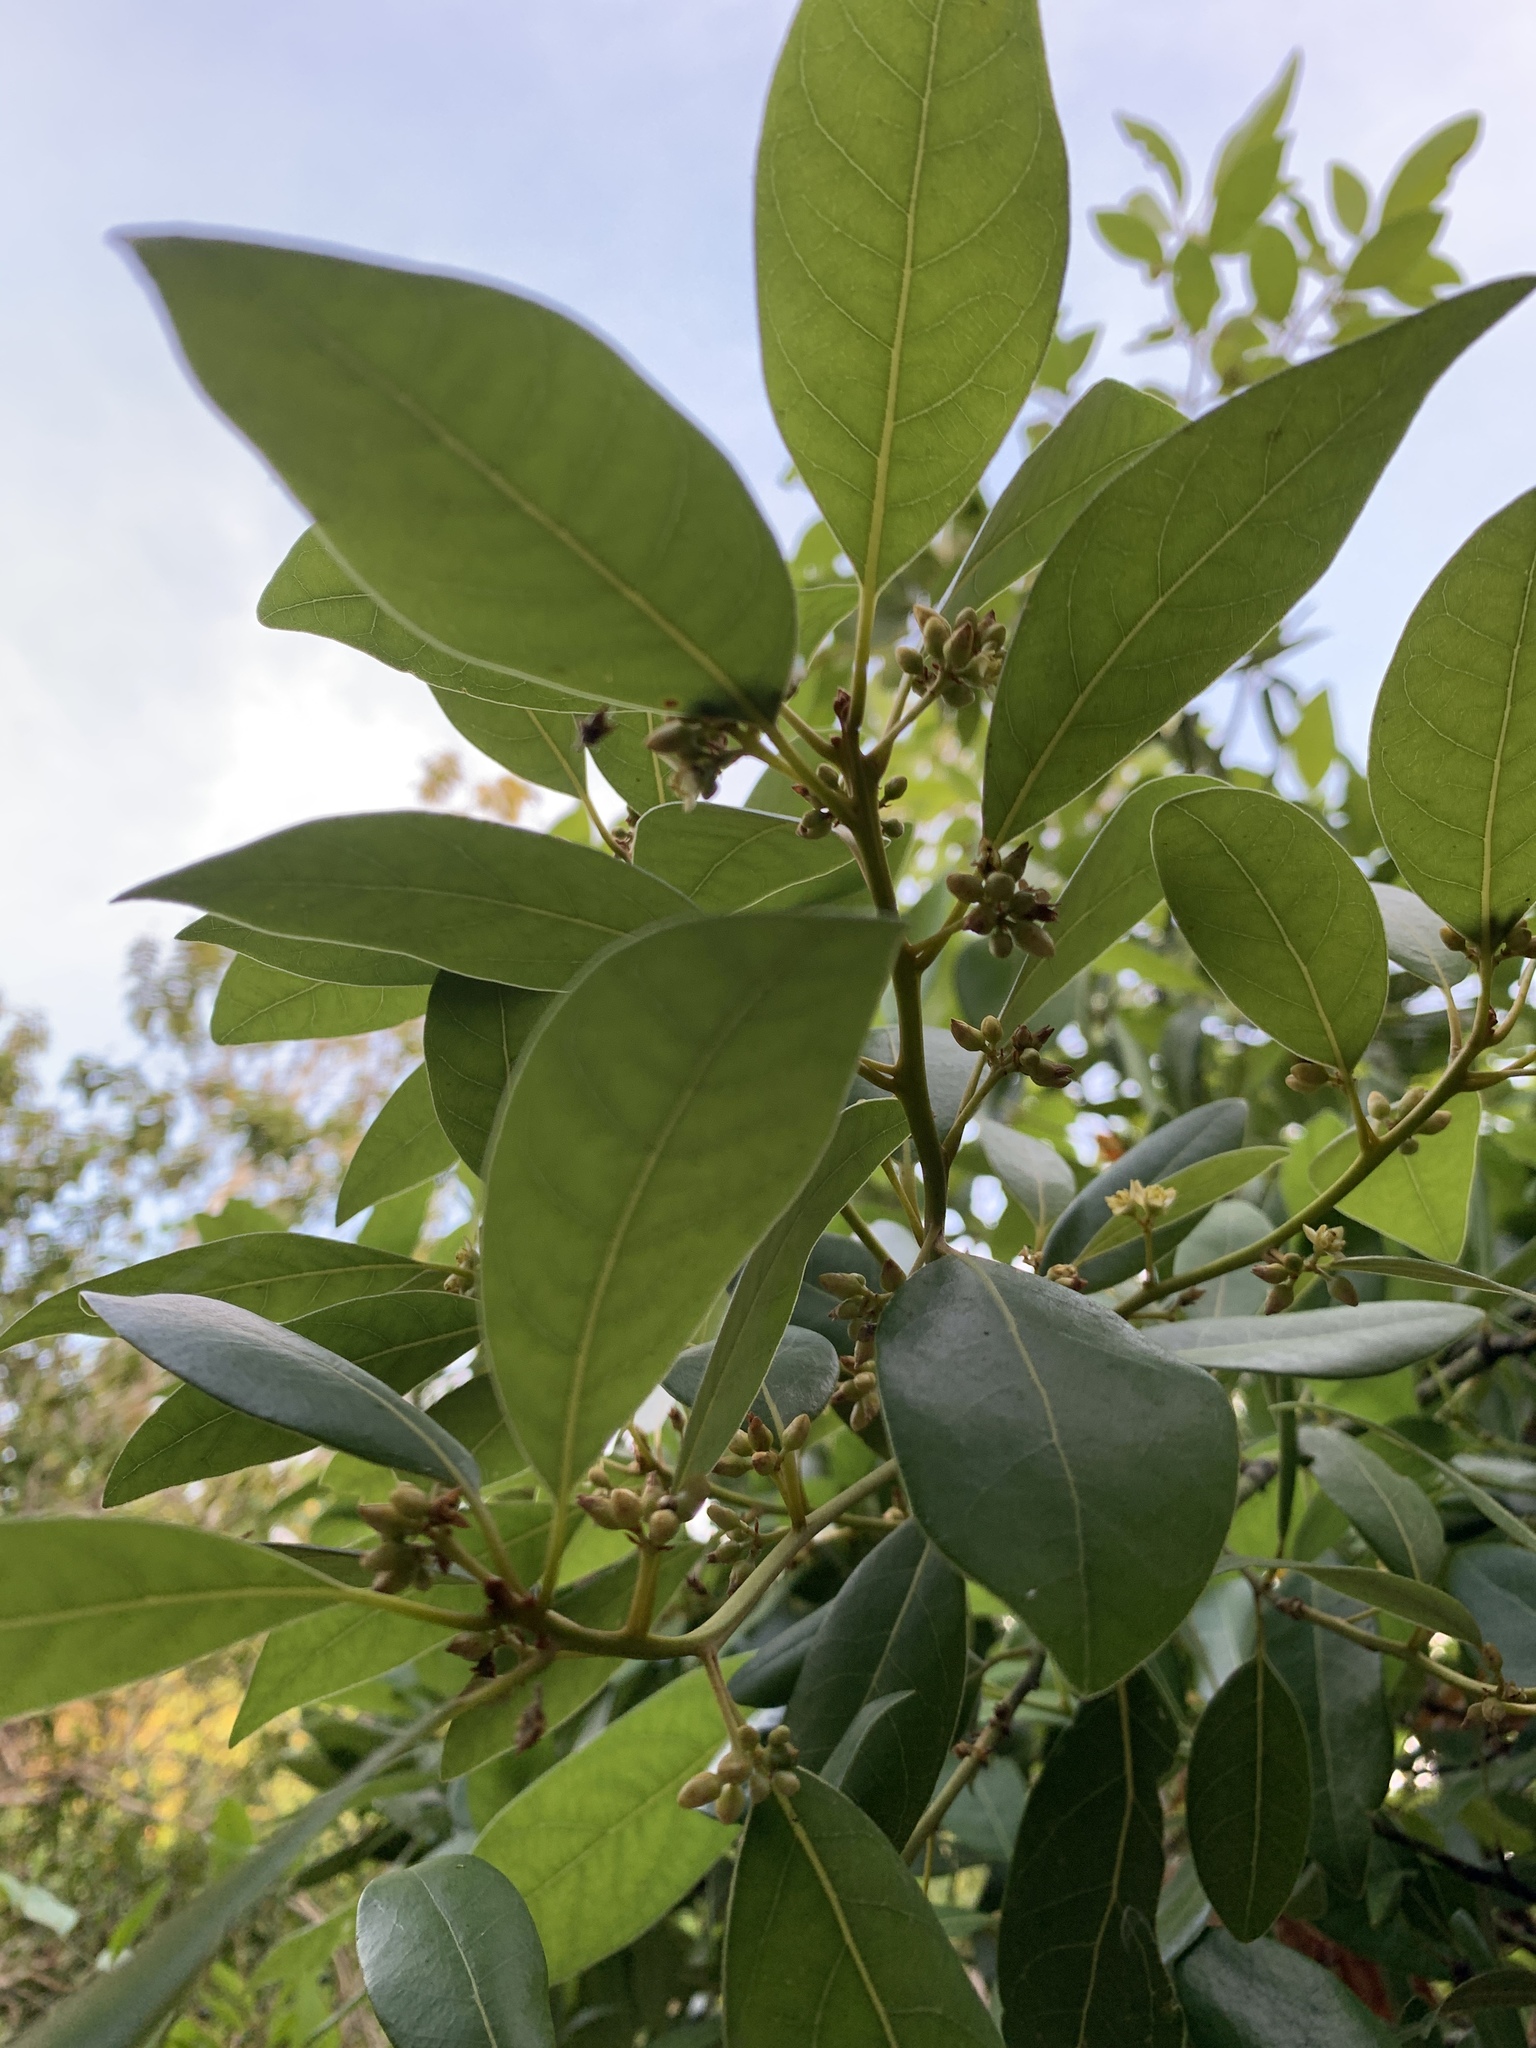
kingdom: Plantae
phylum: Tracheophyta
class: Magnoliopsida
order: Laurales
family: Lauraceae
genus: Persea
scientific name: Persea borbonia
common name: Redbay
